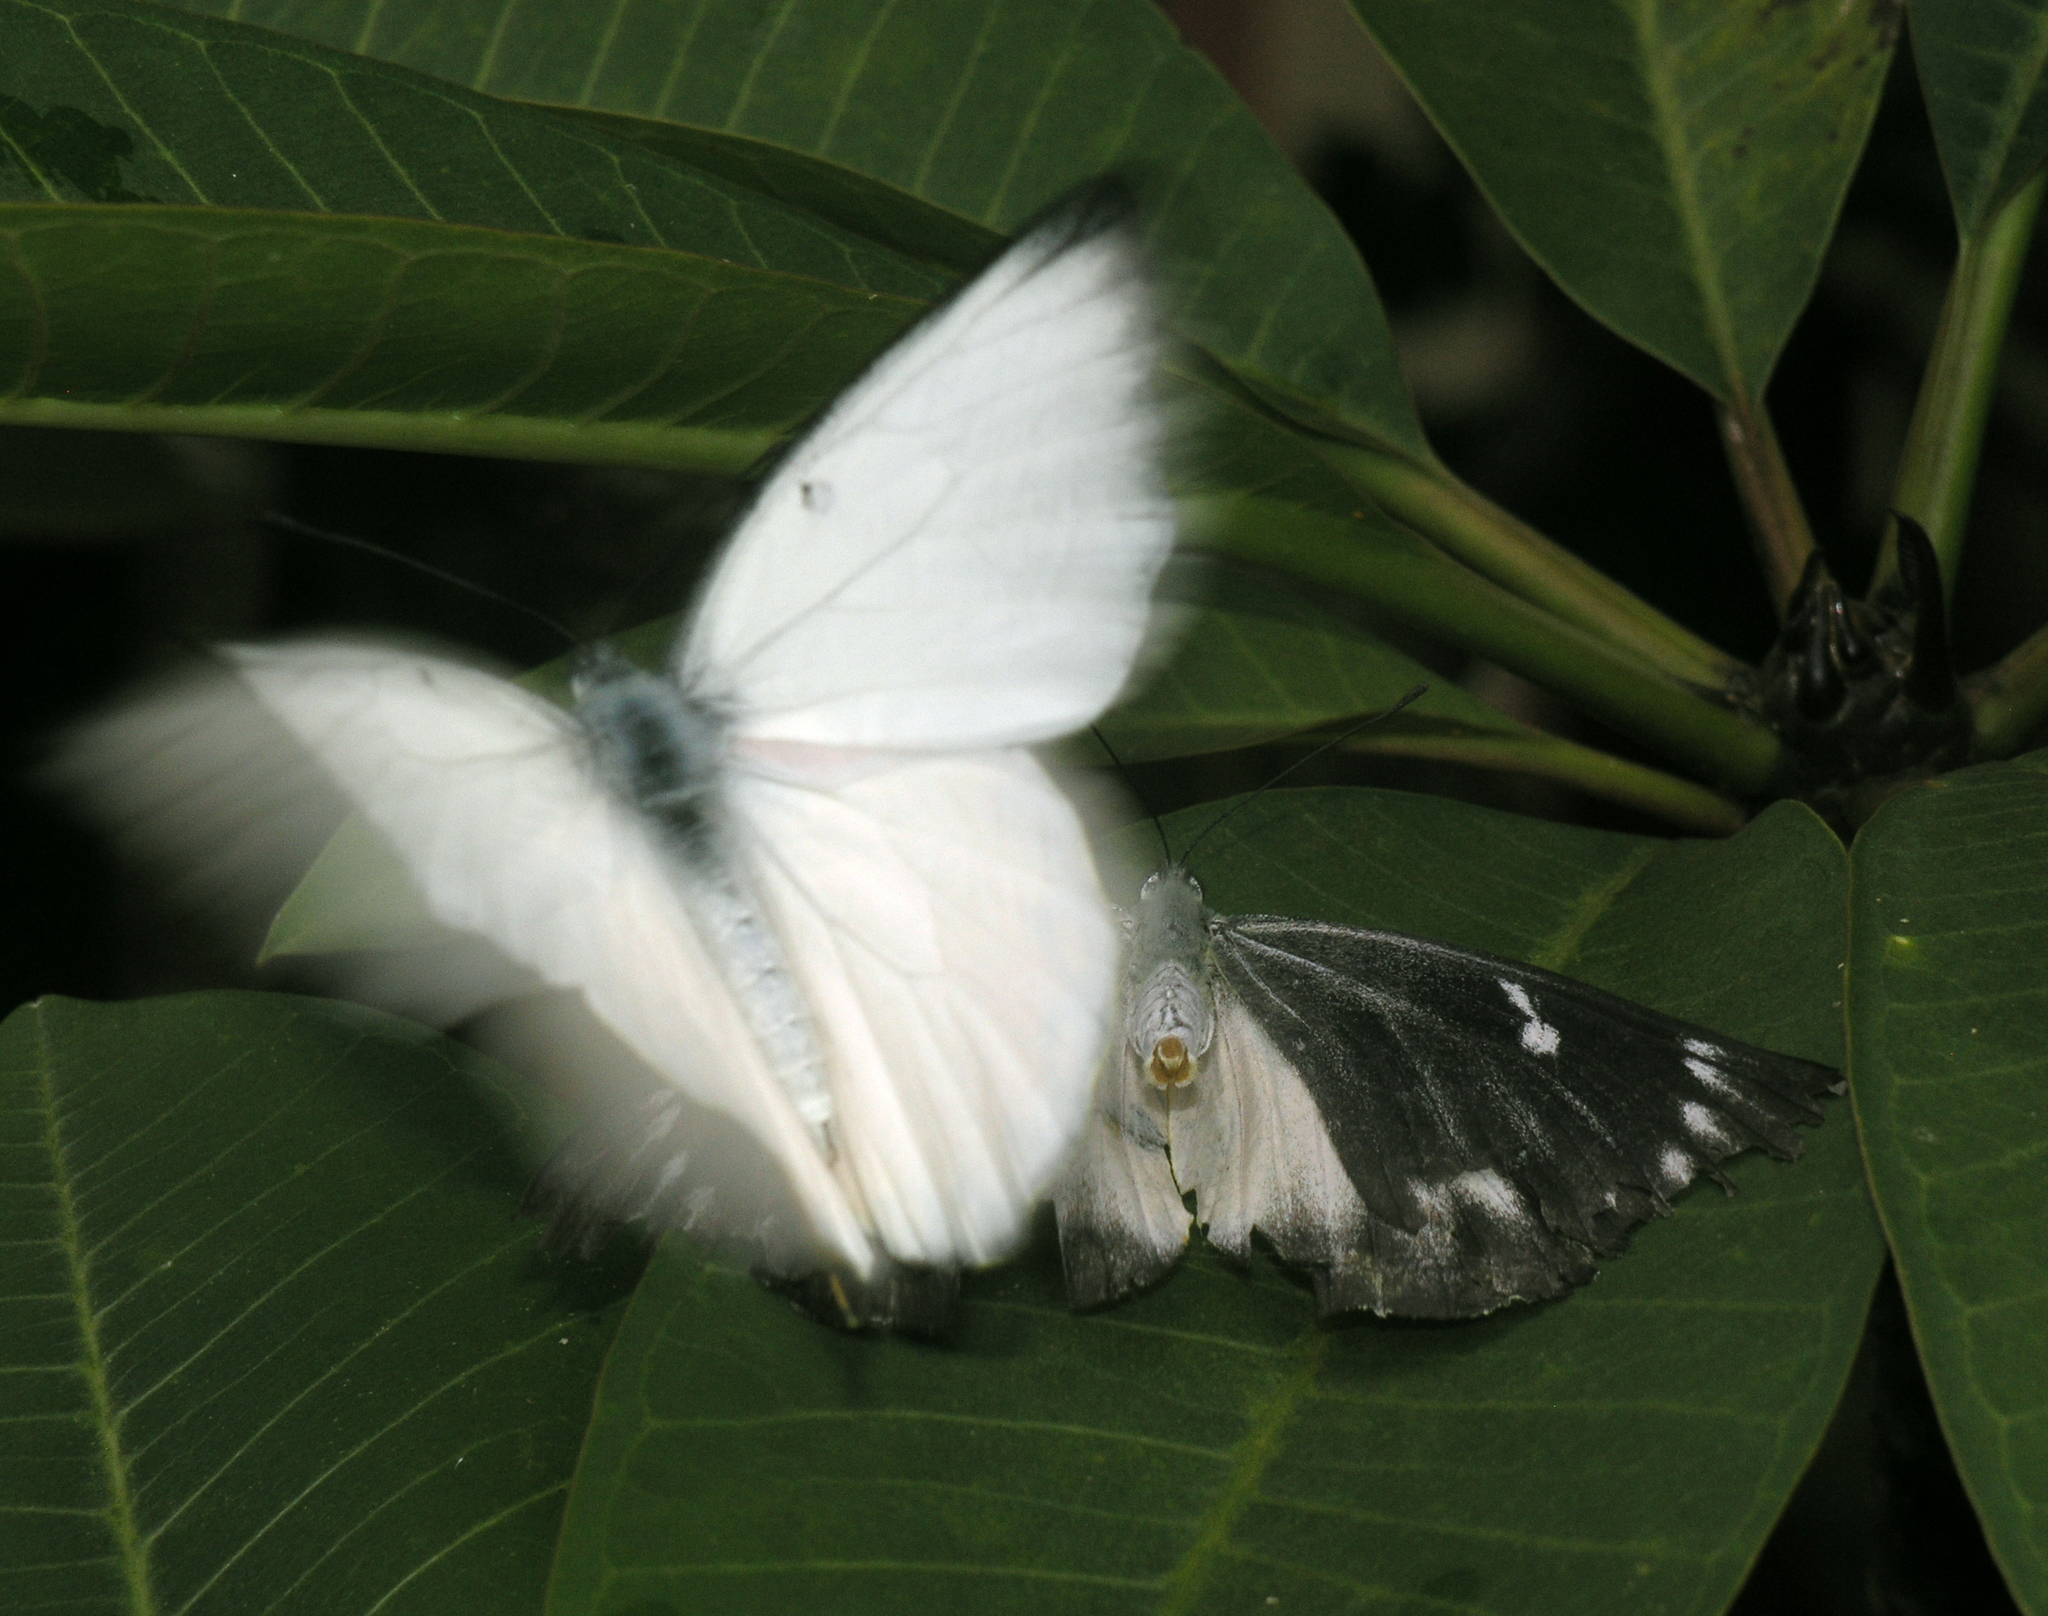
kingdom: Animalia
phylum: Arthropoda
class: Insecta
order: Lepidoptera
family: Pieridae
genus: Delias
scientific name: Delias descombesi
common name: Red-spot jezebel
